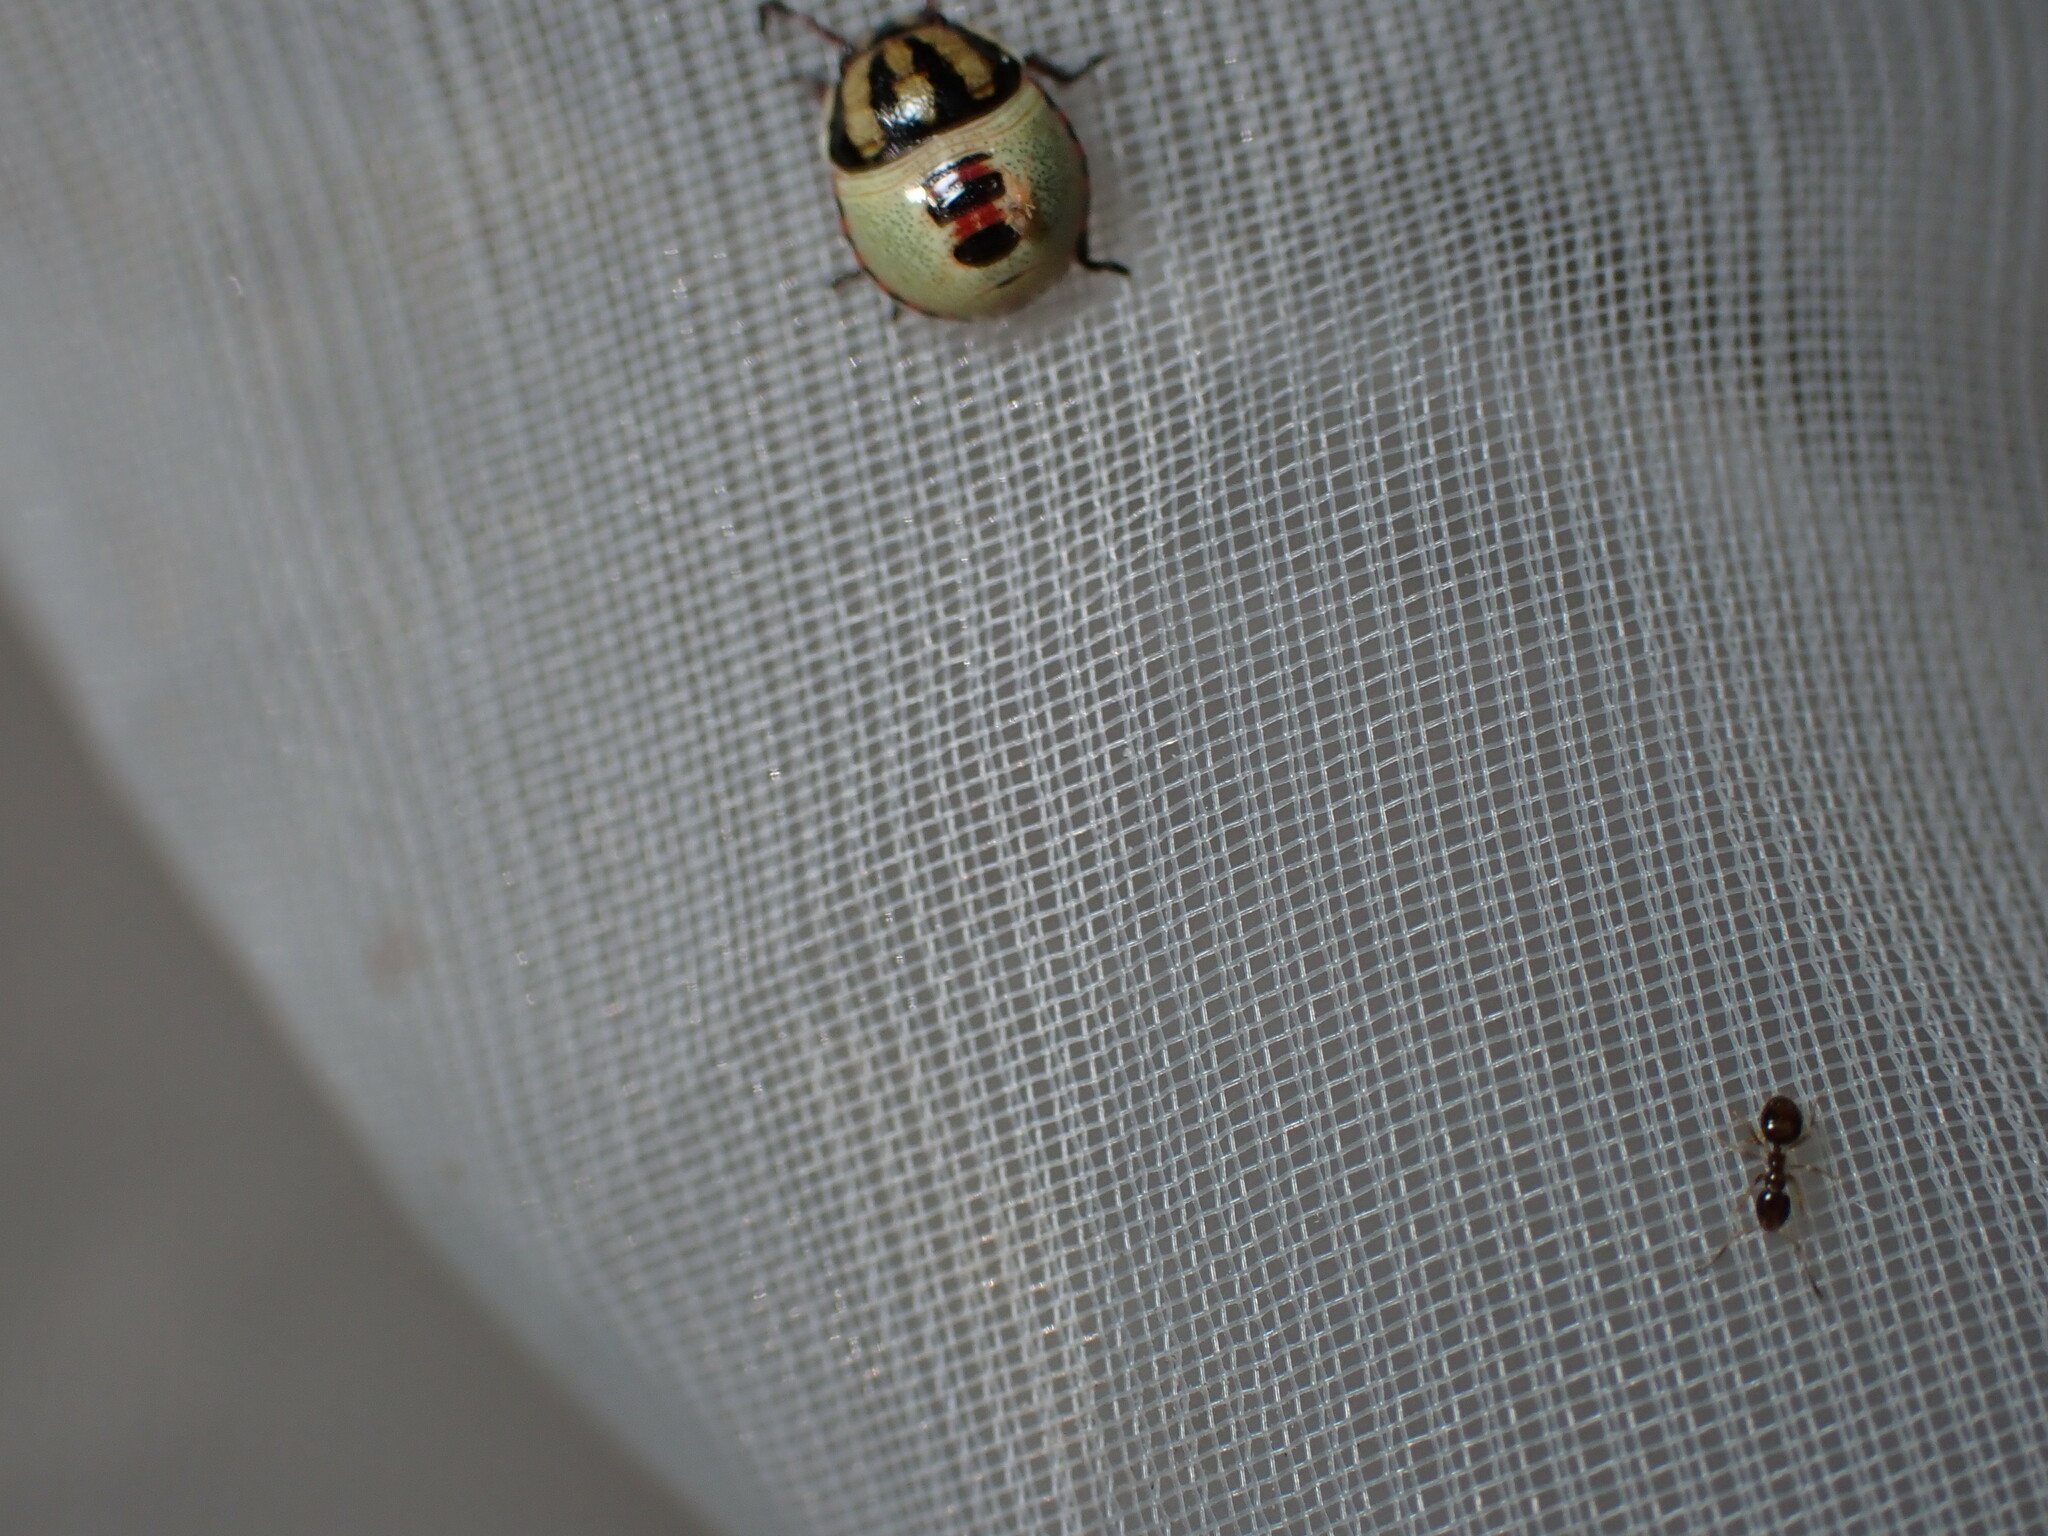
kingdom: Animalia
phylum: Arthropoda
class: Insecta
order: Hemiptera
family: Pentatomidae
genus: Piezodorus
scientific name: Piezodorus lituratus
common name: Stink bug
